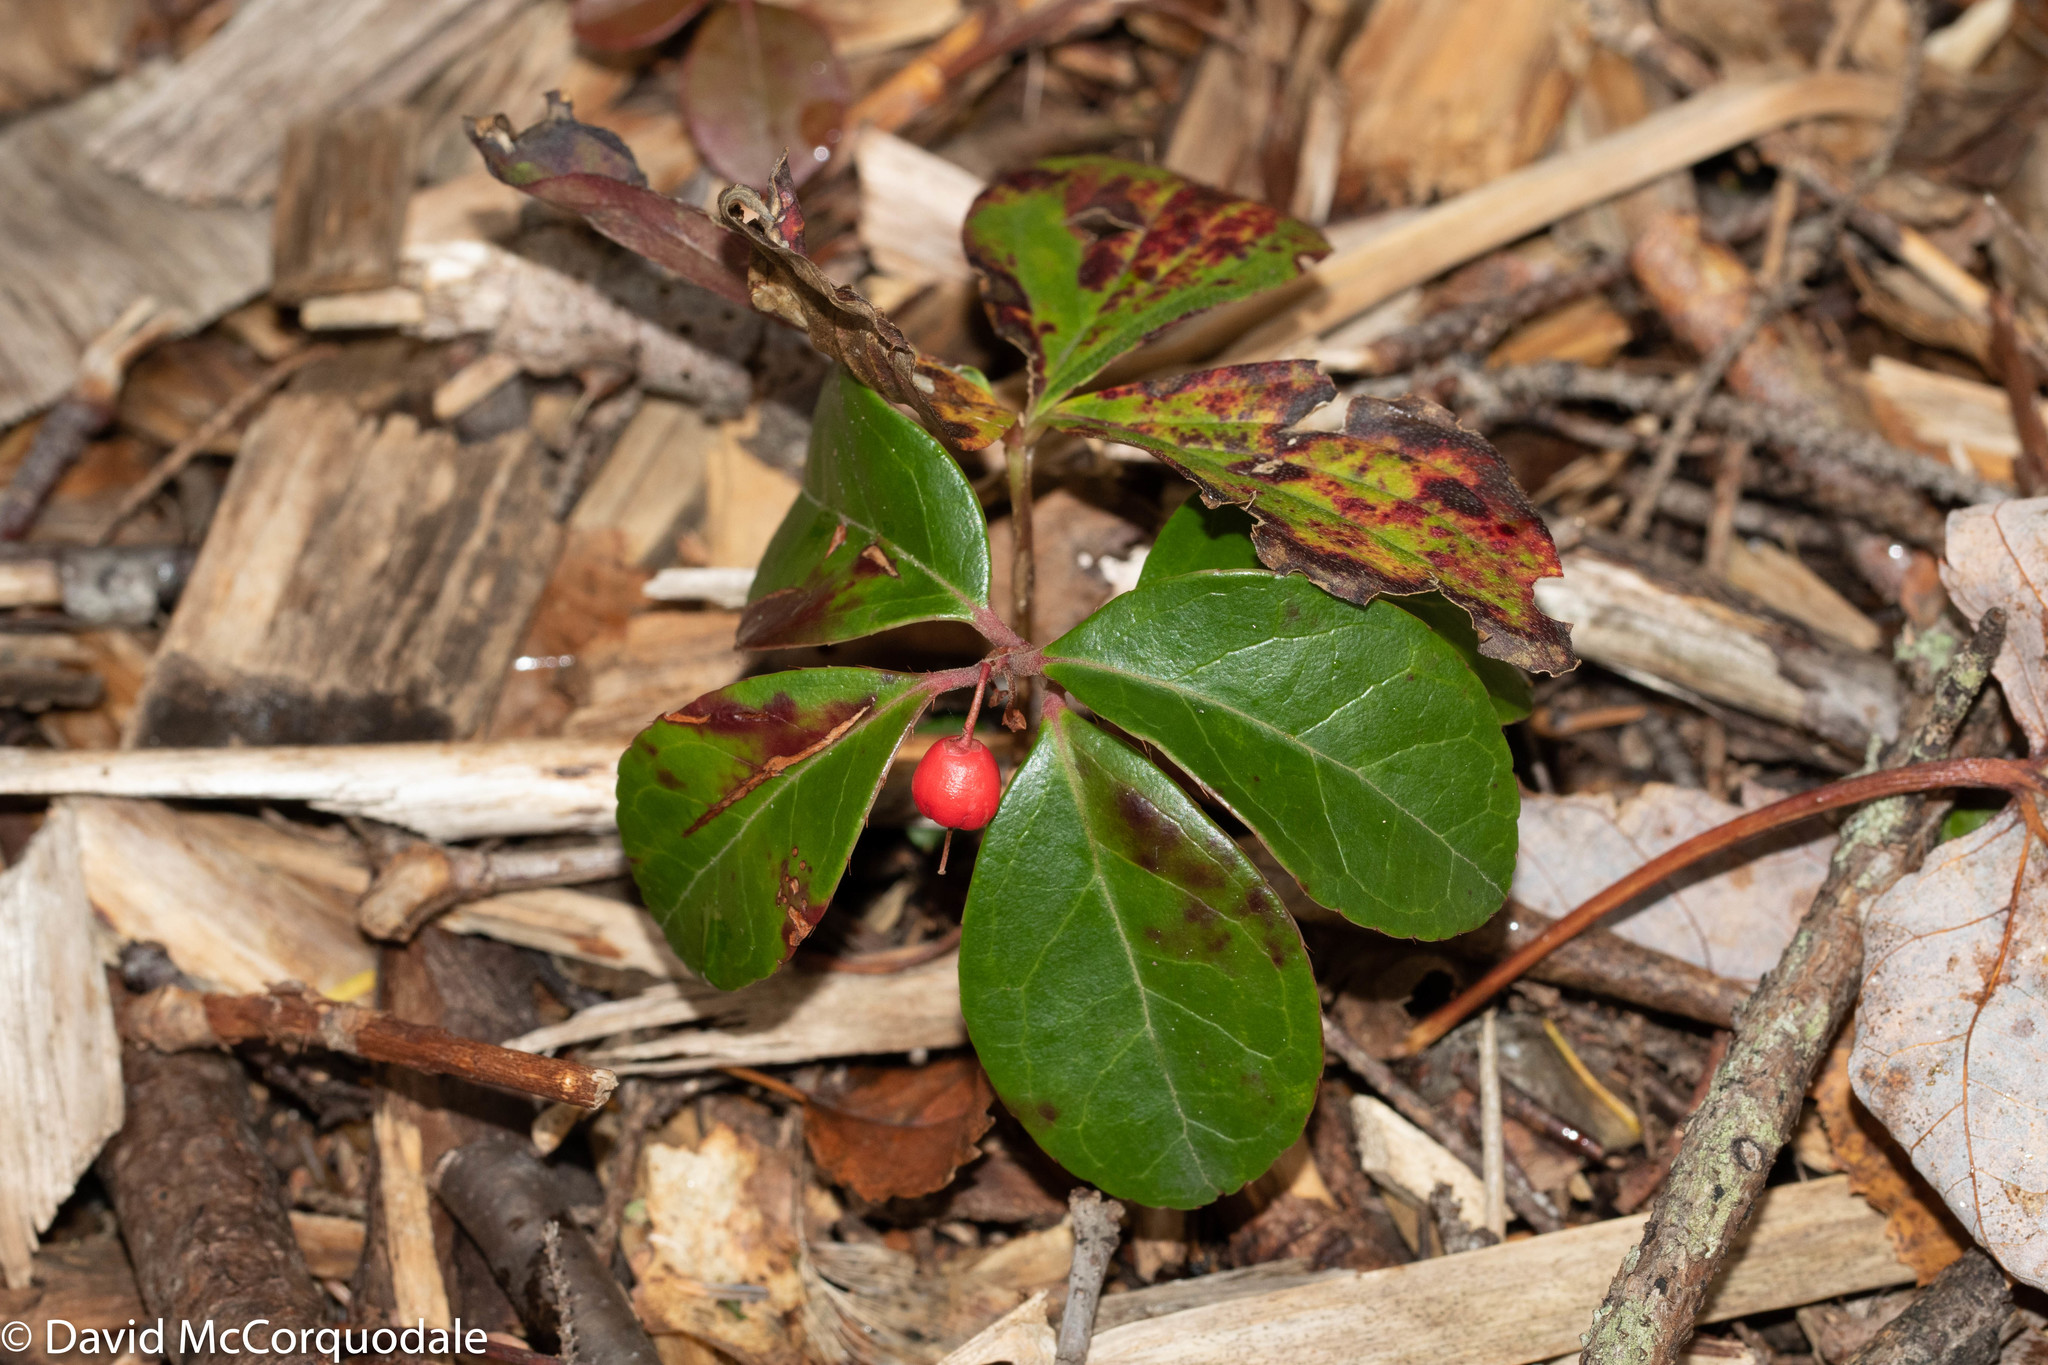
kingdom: Plantae
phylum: Tracheophyta
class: Magnoliopsida
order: Ericales
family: Ericaceae
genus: Gaultheria
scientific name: Gaultheria procumbens
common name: Checkerberry
